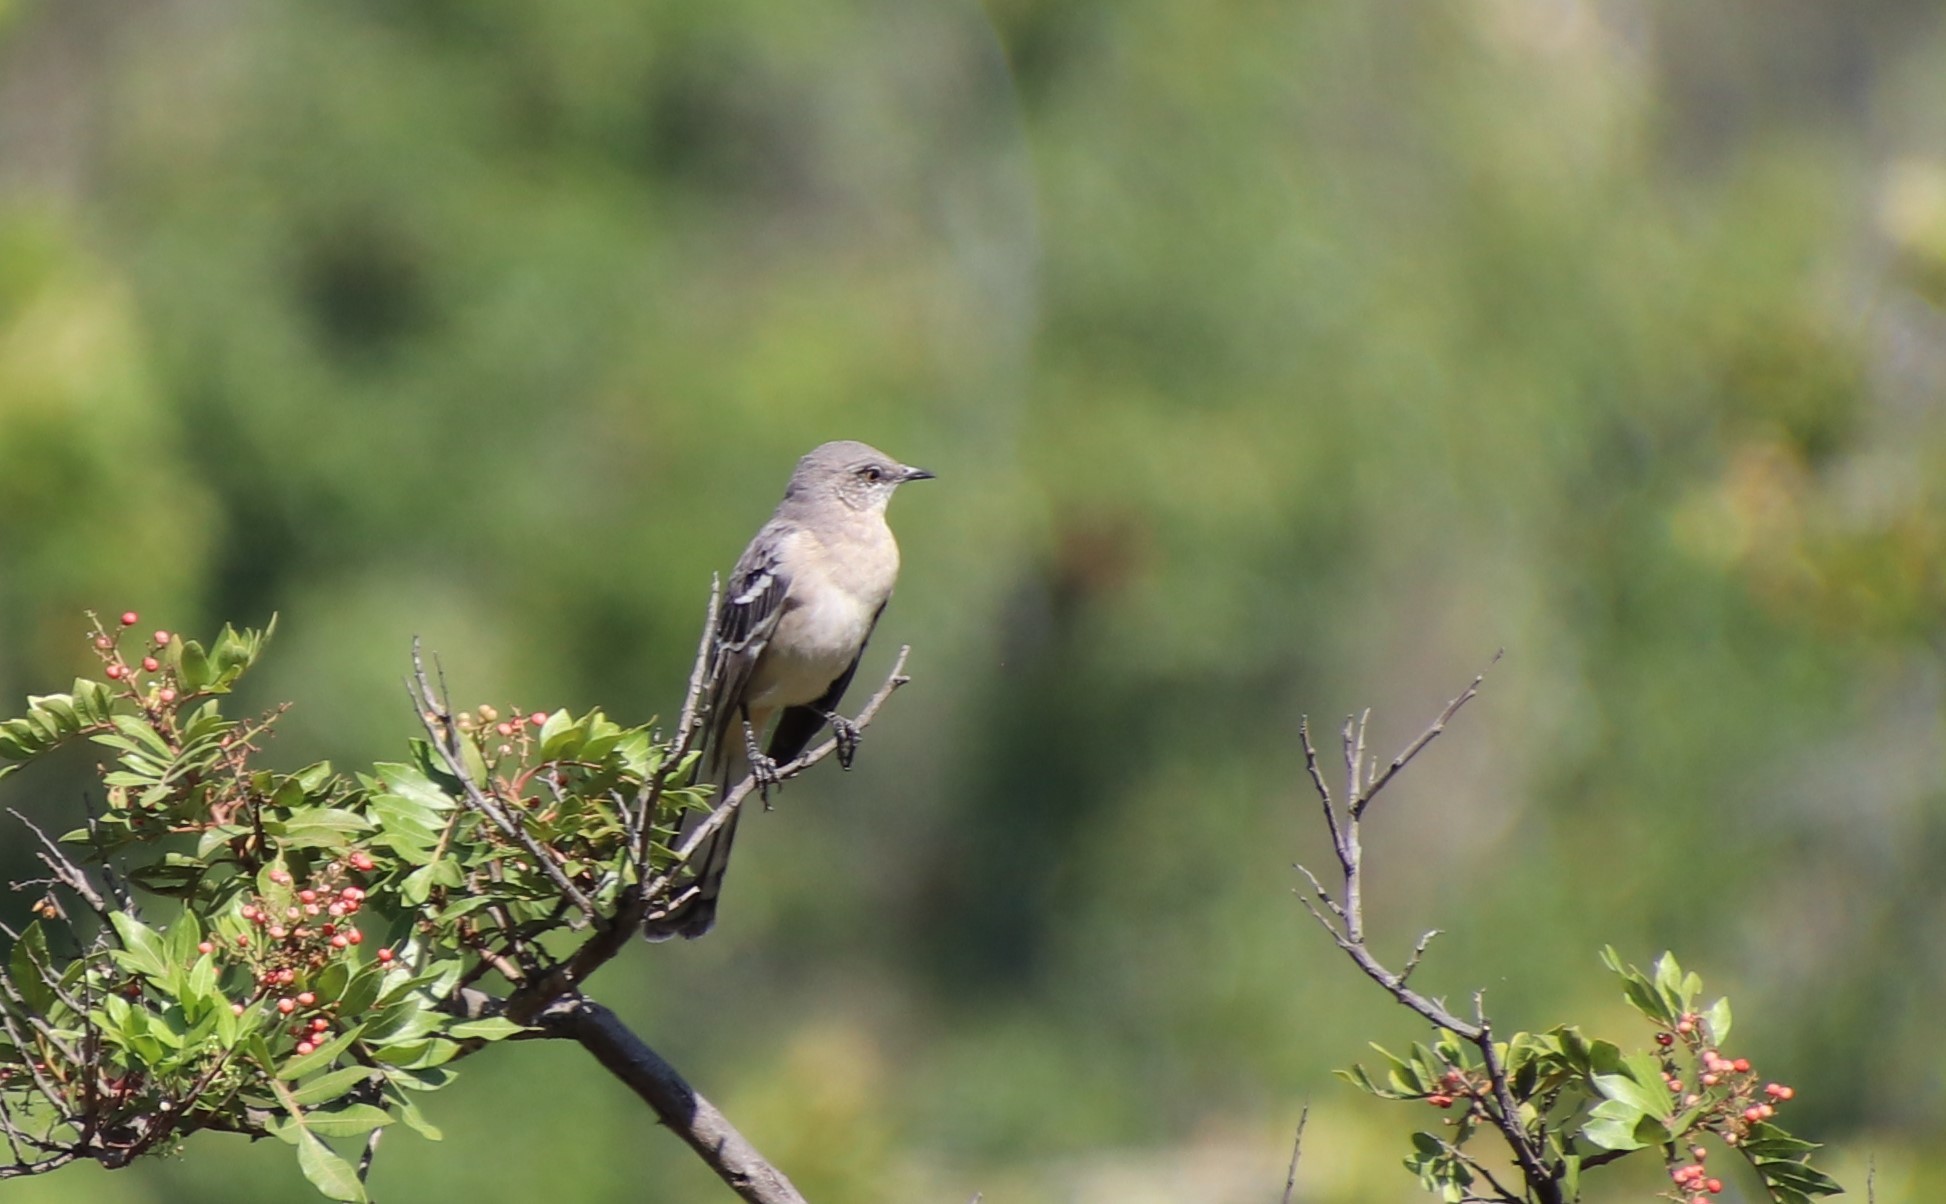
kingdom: Animalia
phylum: Chordata
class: Aves
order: Passeriformes
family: Mimidae
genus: Mimus
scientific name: Mimus polyglottos
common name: Northern mockingbird
